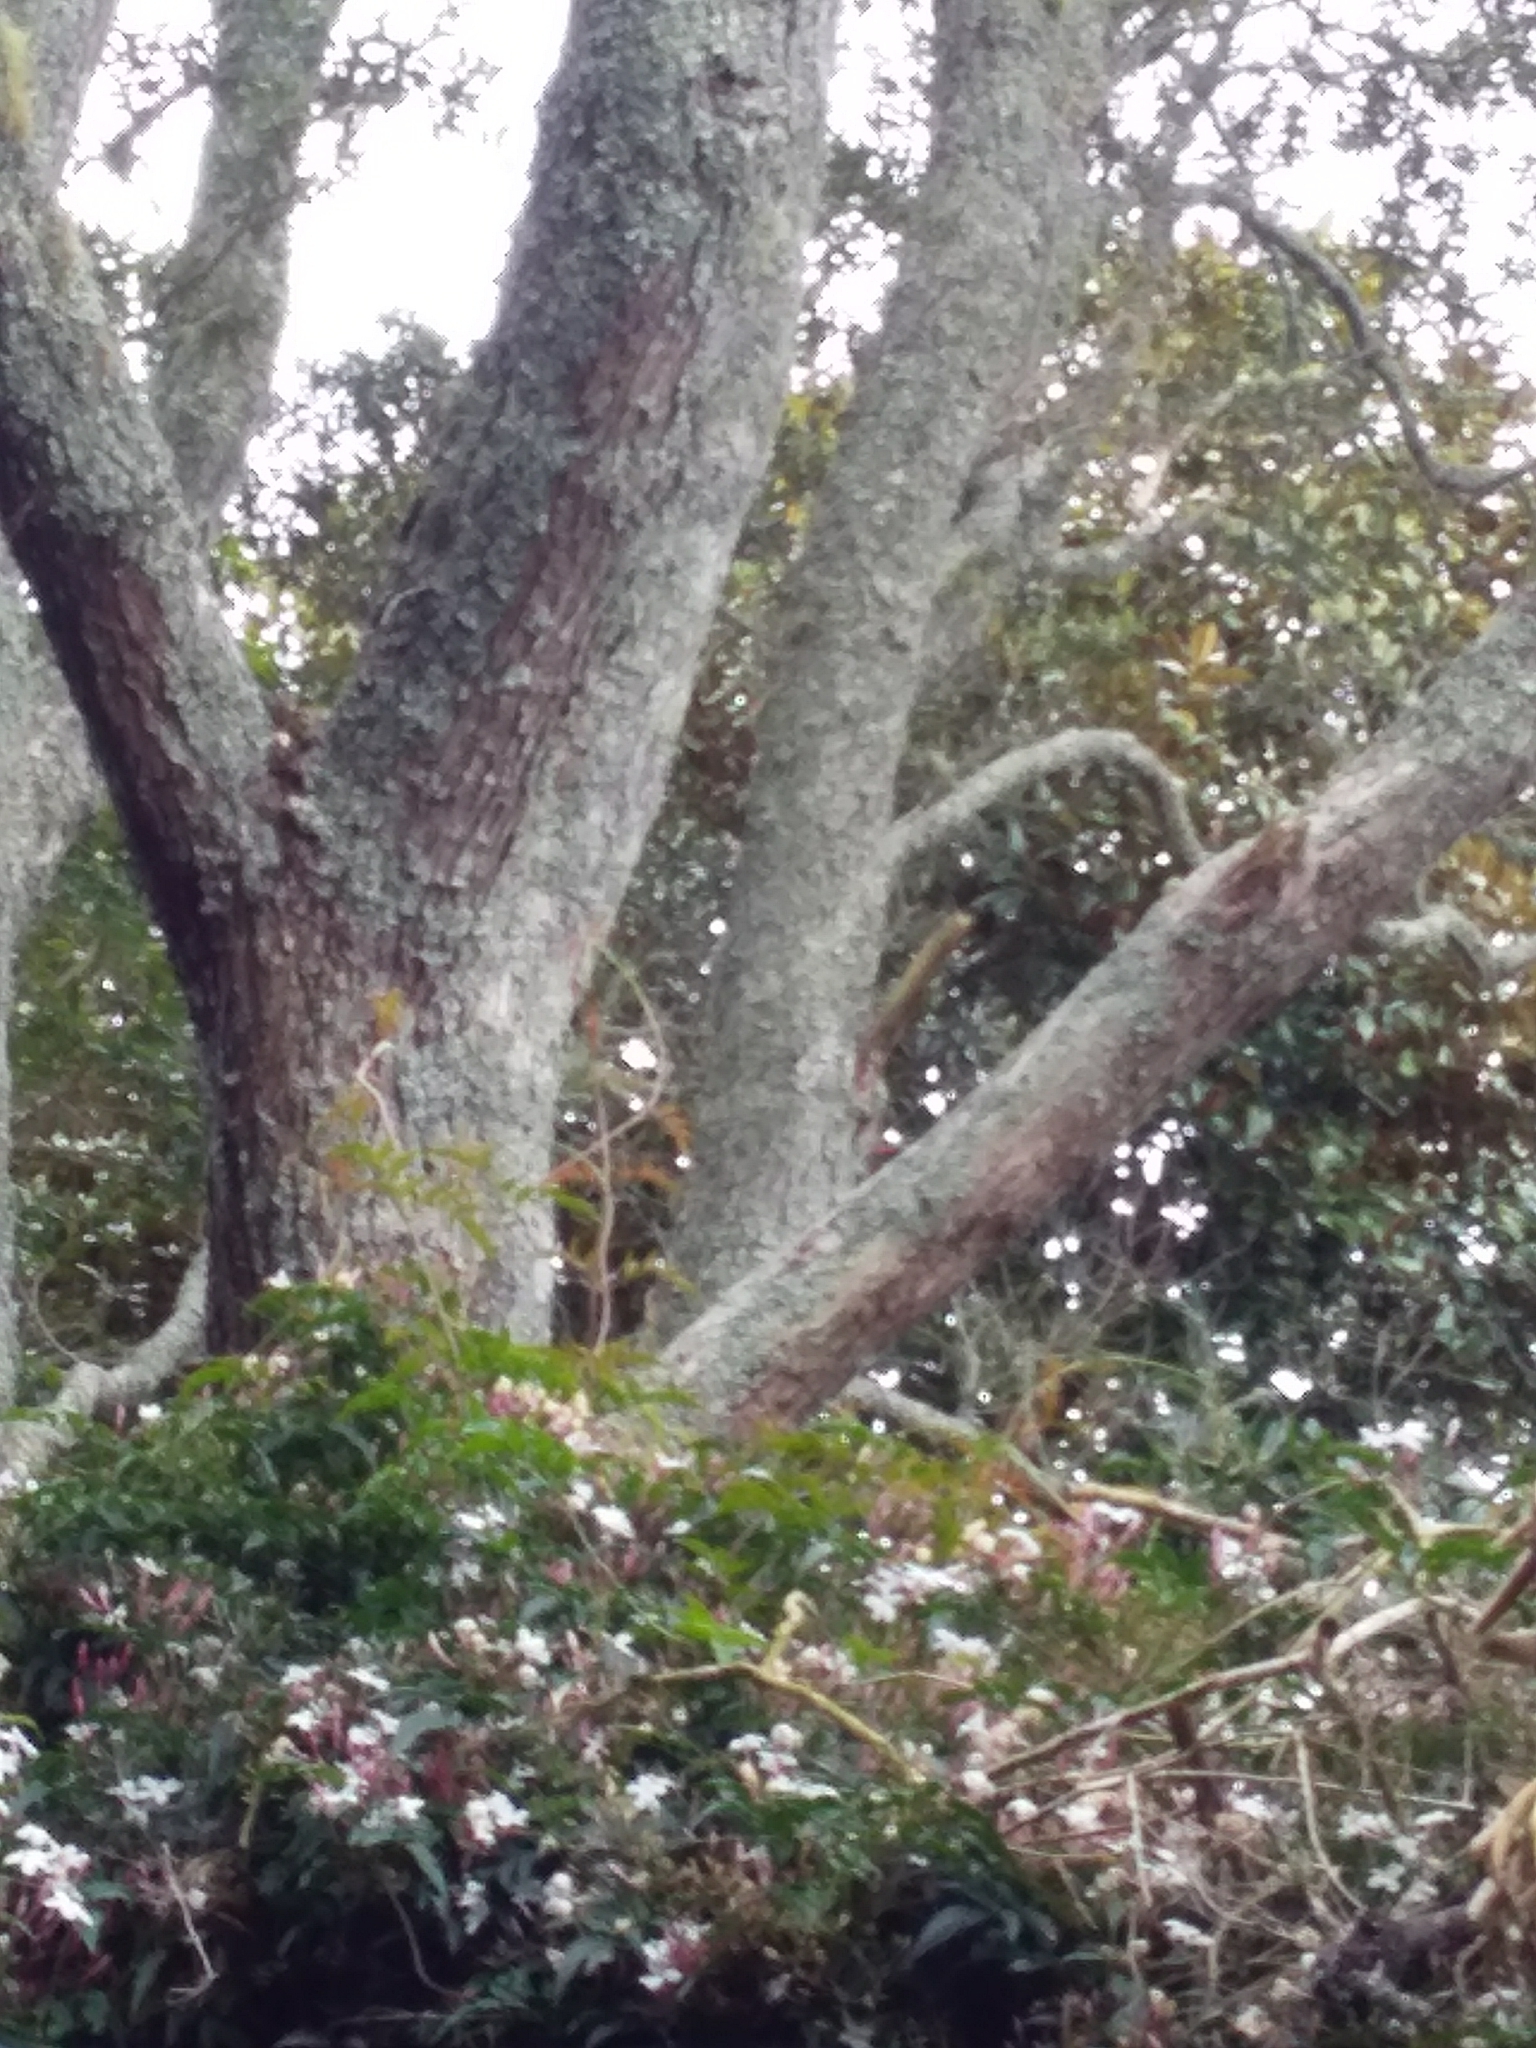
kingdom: Plantae
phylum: Tracheophyta
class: Magnoliopsida
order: Lamiales
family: Oleaceae
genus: Jasminum
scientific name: Jasminum polyanthum
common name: Pink jasmine
